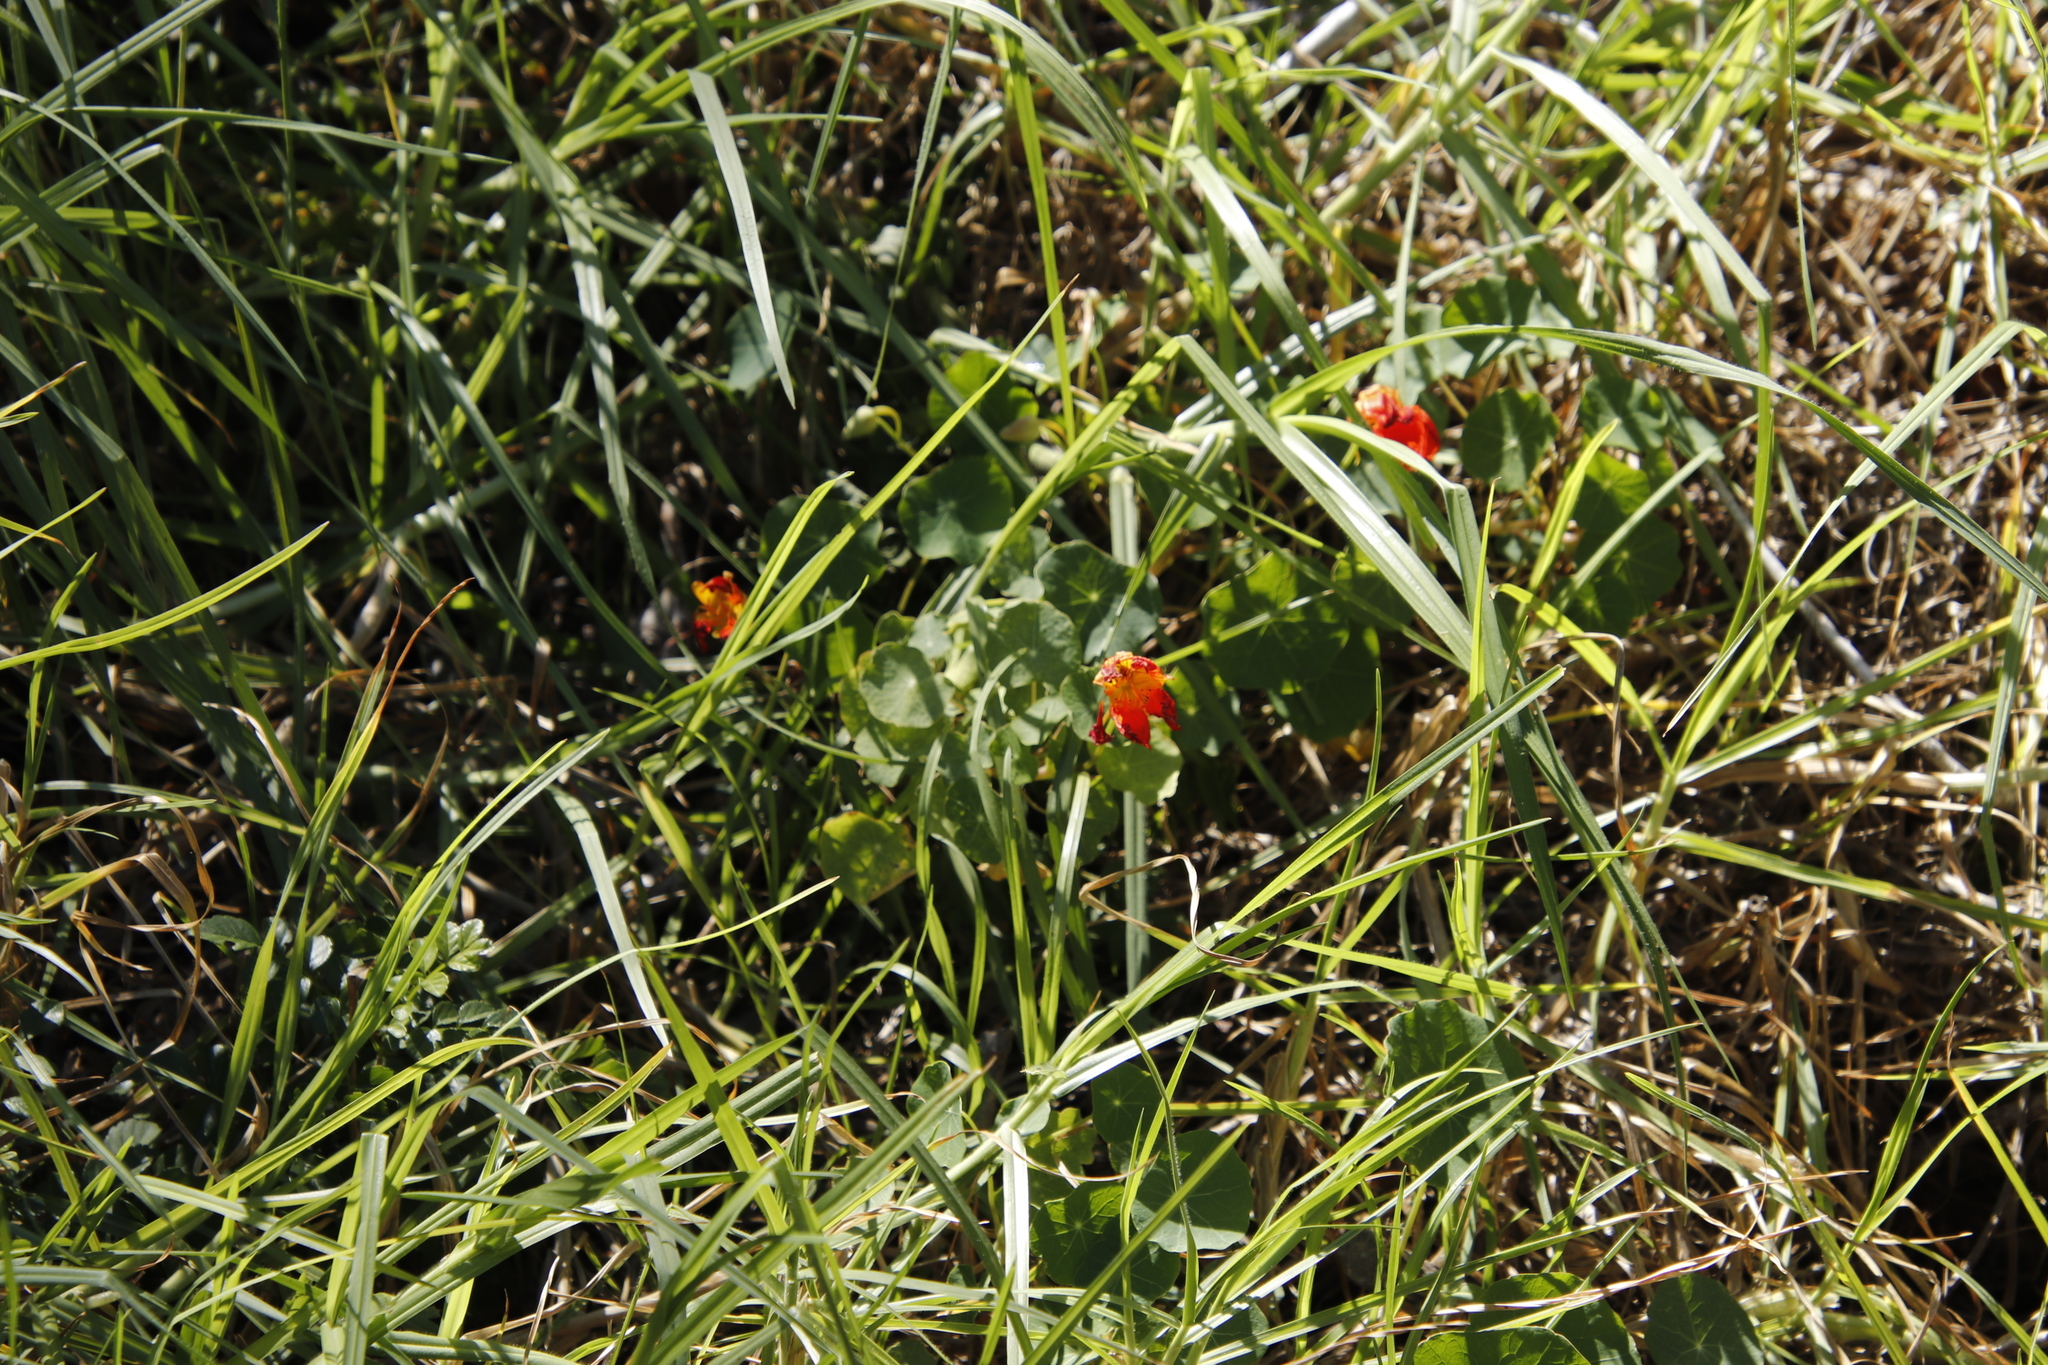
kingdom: Plantae
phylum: Tracheophyta
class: Magnoliopsida
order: Brassicales
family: Tropaeolaceae
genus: Tropaeolum
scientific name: Tropaeolum majus
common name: Nasturtium
